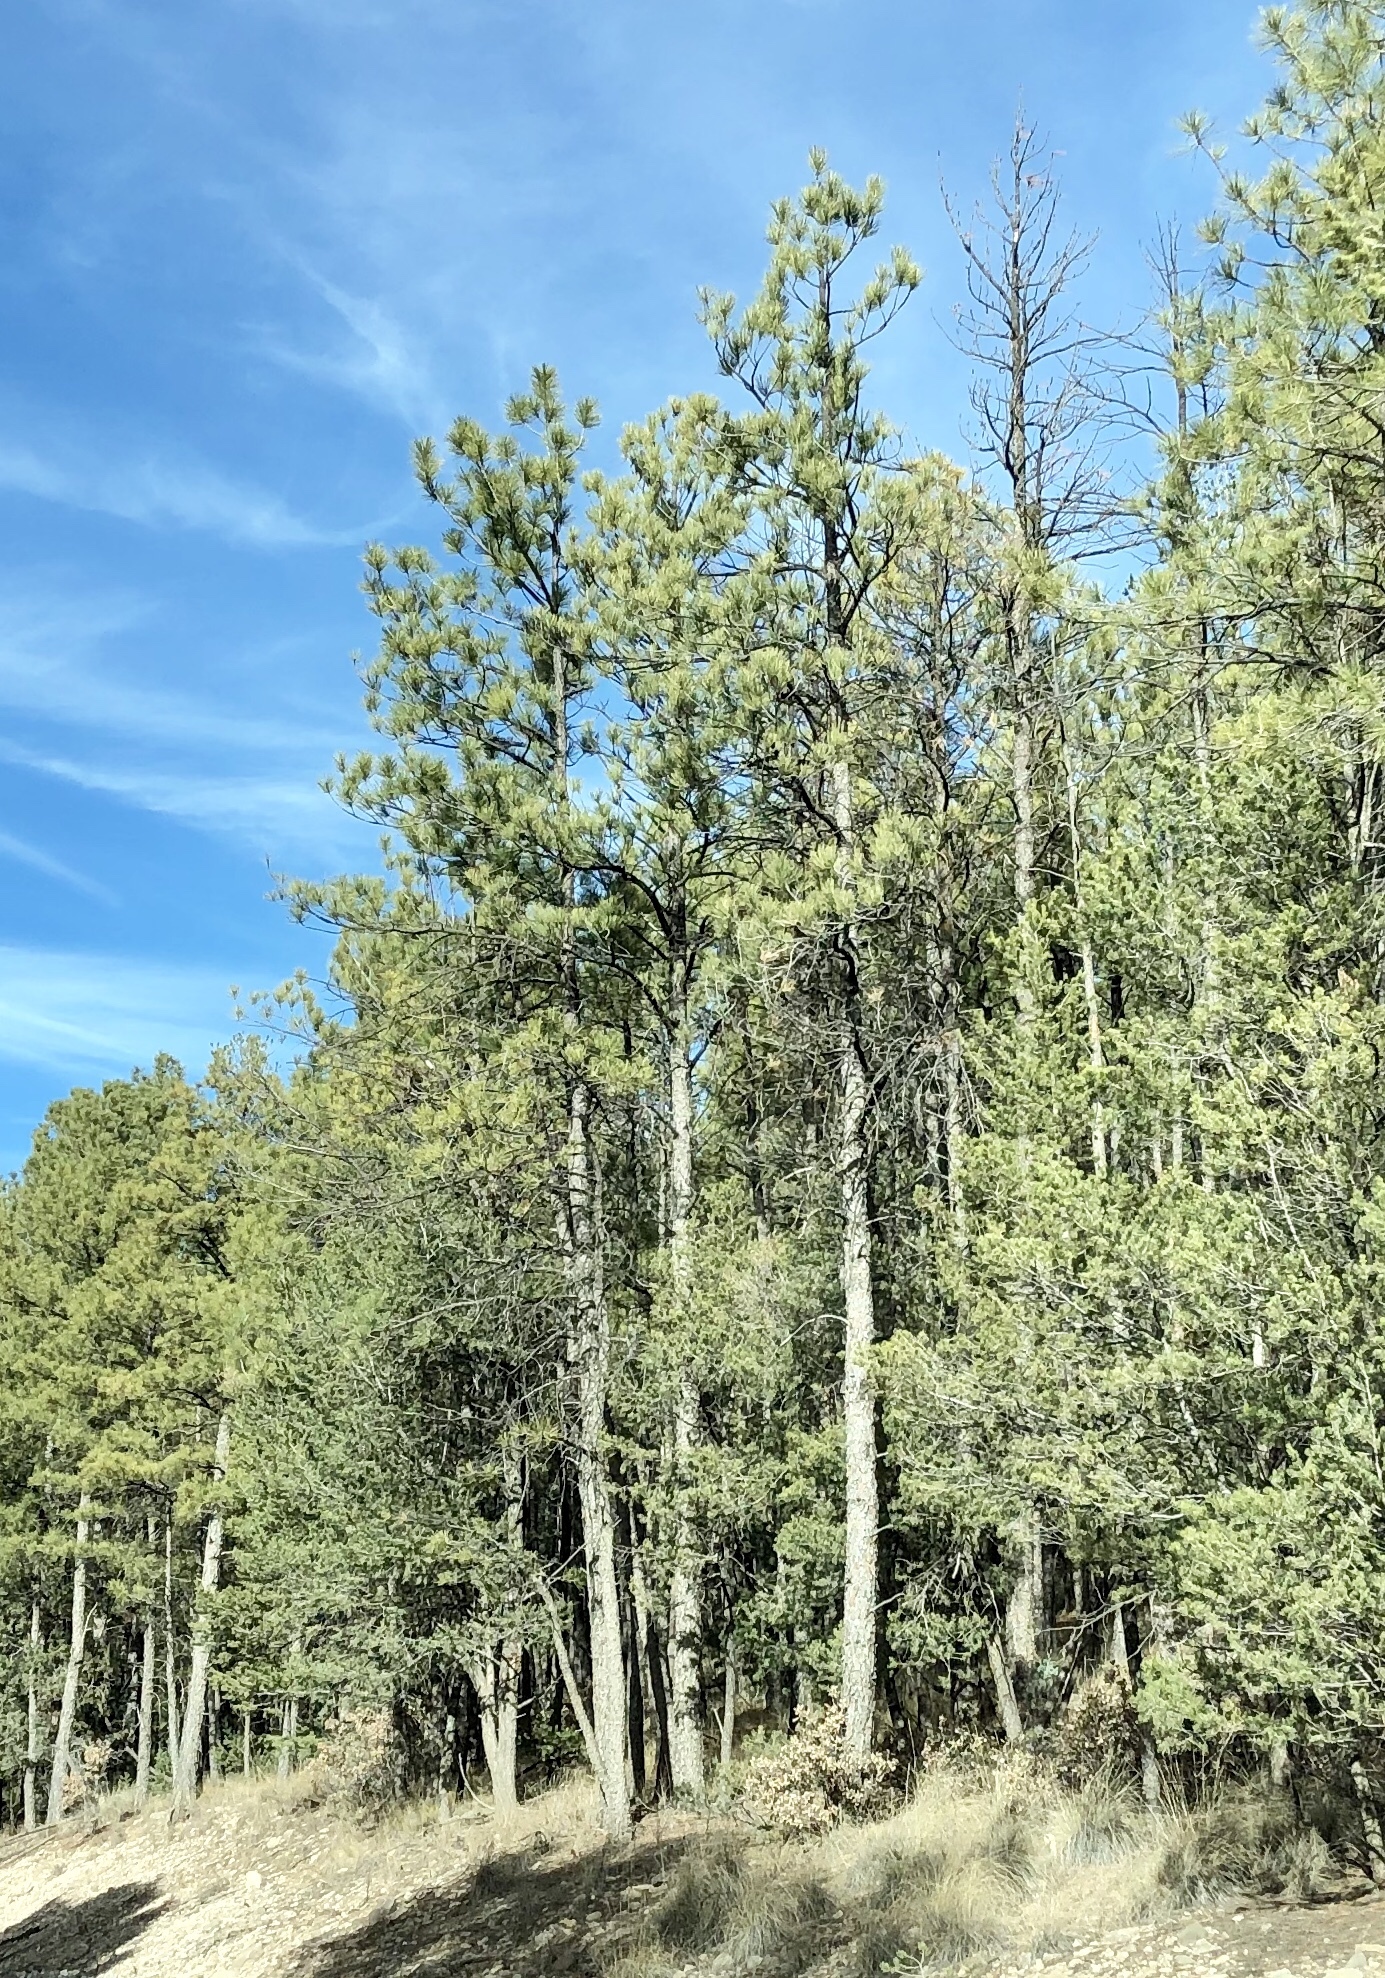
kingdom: Plantae
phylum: Tracheophyta
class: Pinopsida
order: Pinales
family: Pinaceae
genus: Pinus
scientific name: Pinus ponderosa
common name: Western yellow-pine
